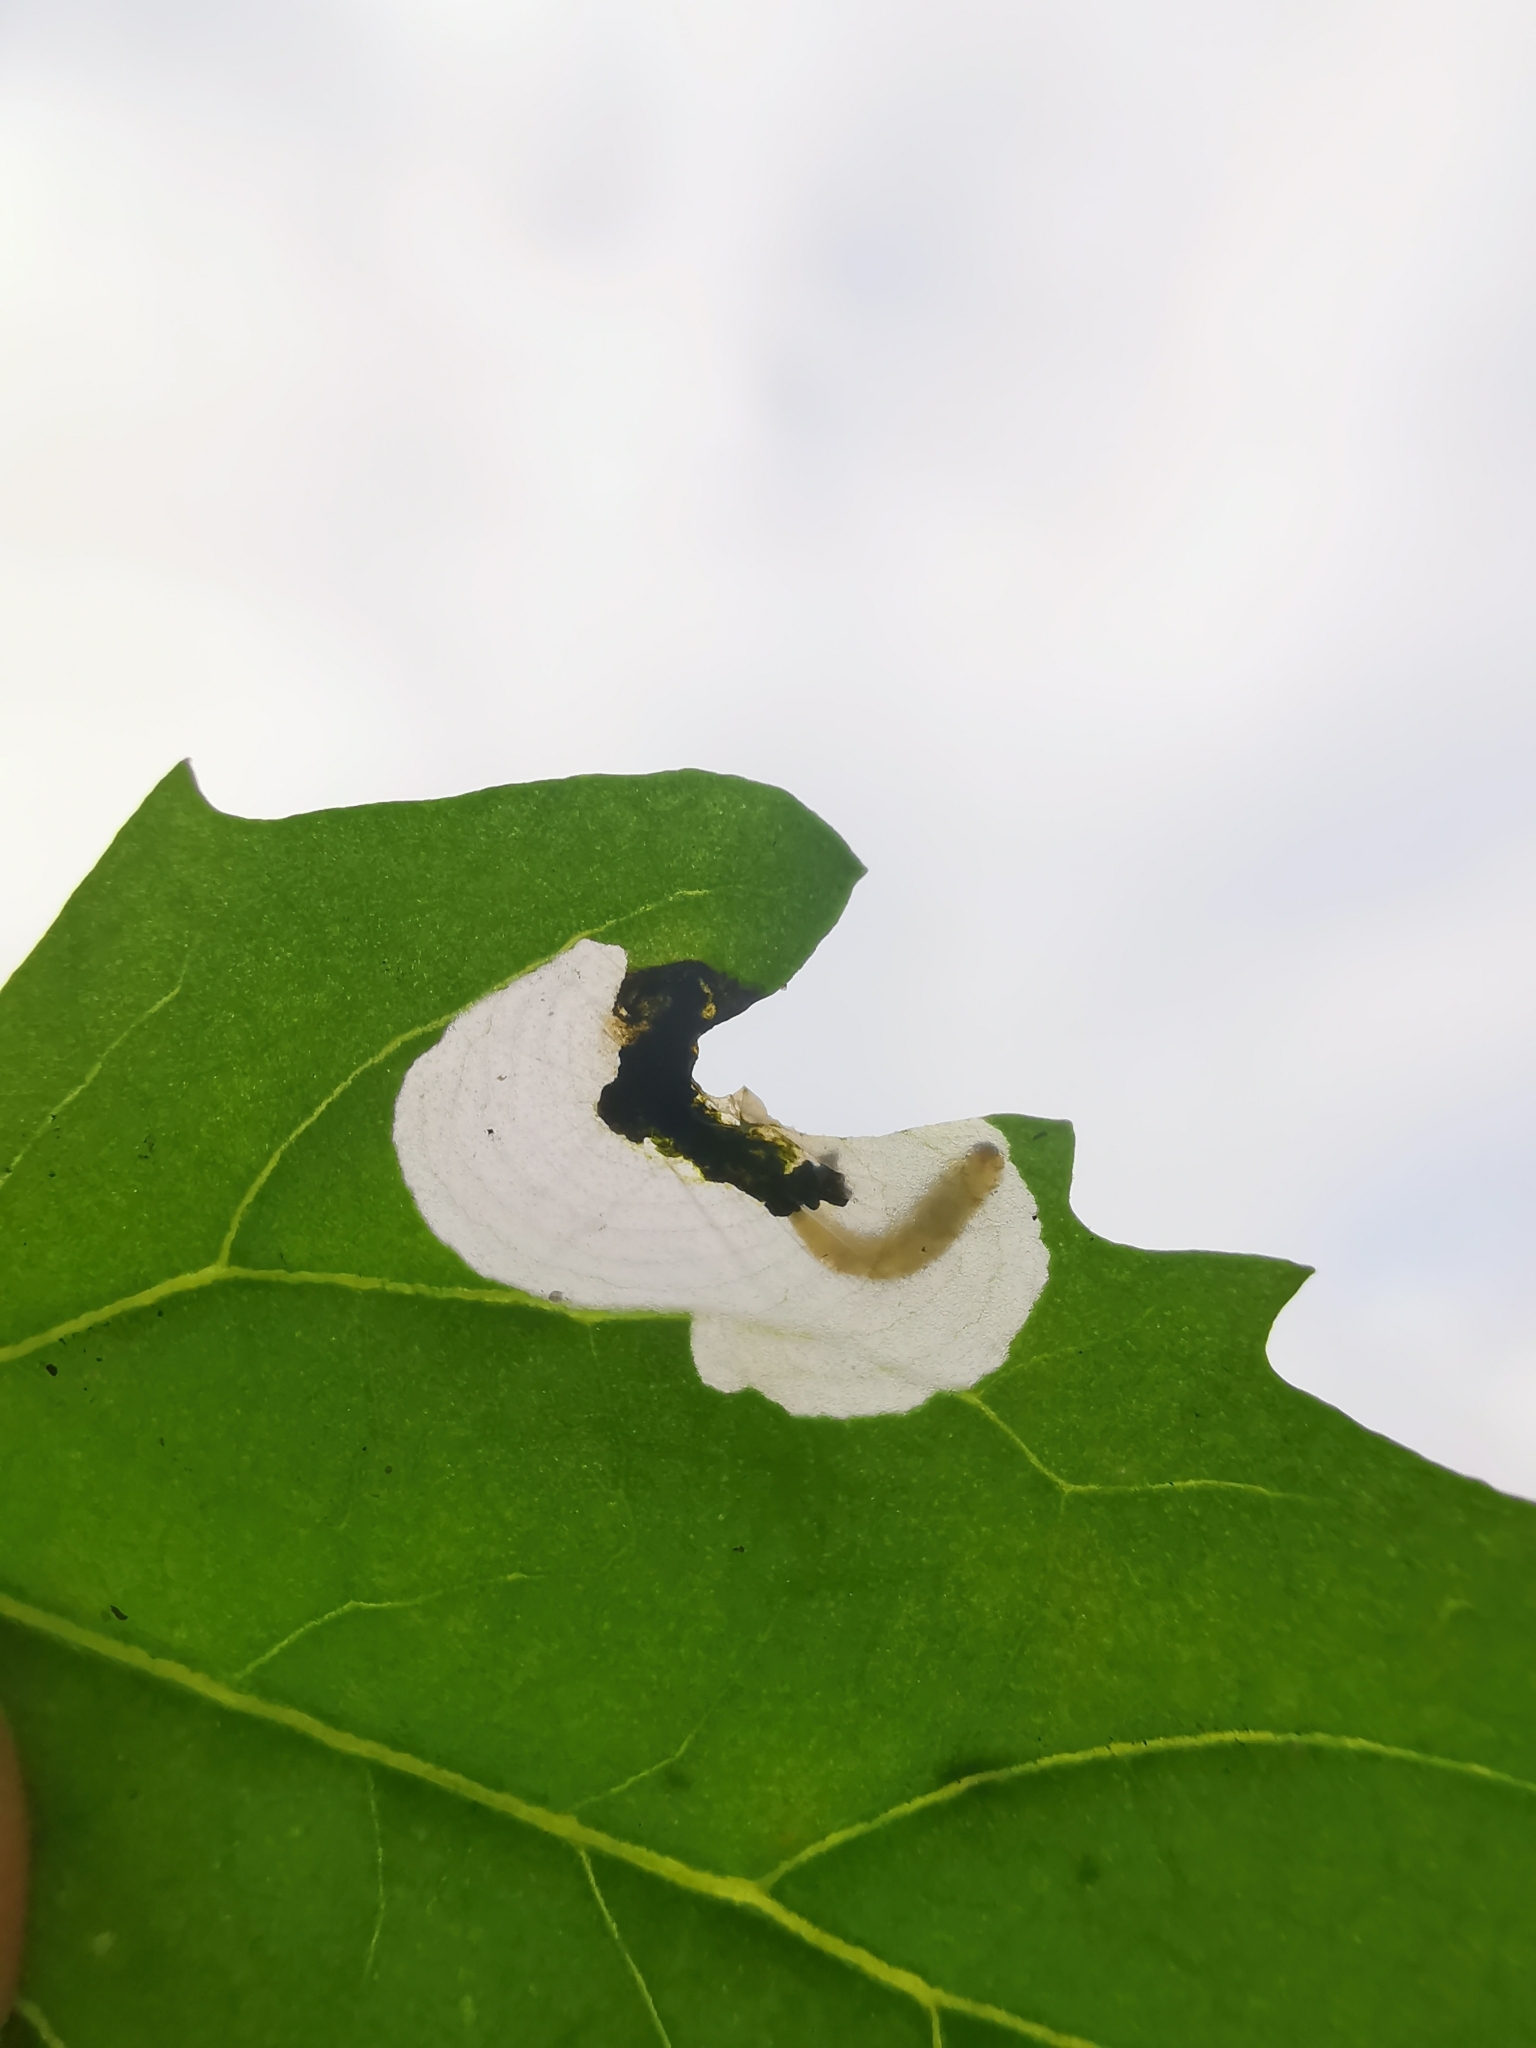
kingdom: Animalia
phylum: Arthropoda
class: Insecta
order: Lepidoptera
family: Gelechiidae
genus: Chrysoesthia
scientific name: Chrysoesthia sexguttella
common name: Moth
